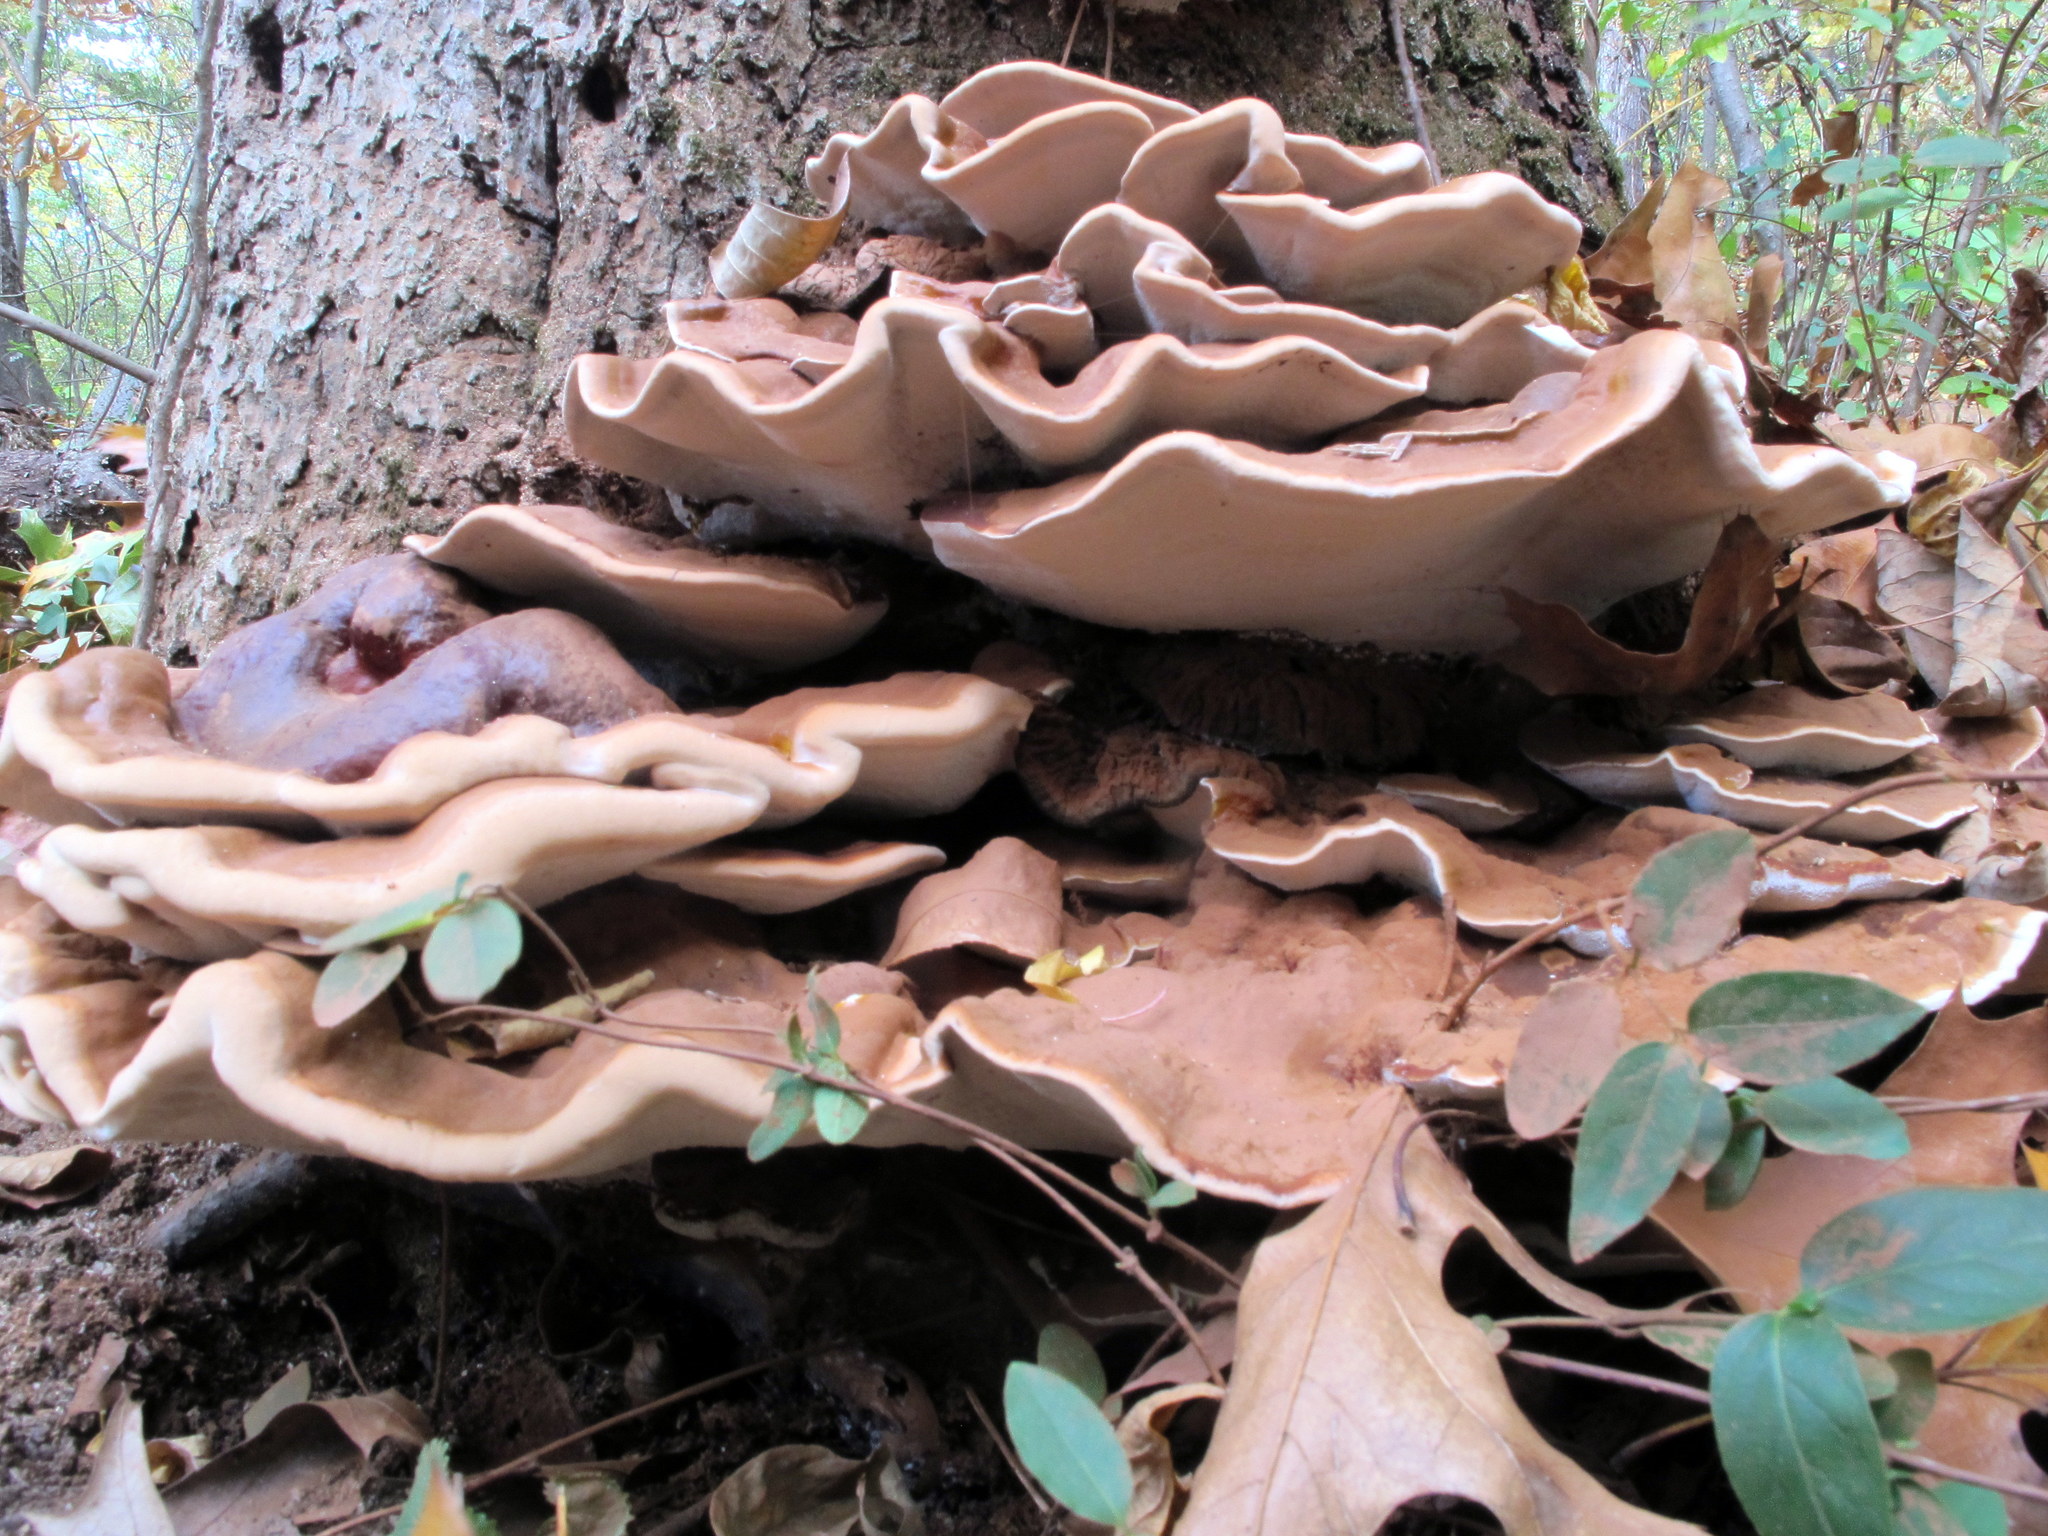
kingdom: Fungi
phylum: Basidiomycota
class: Agaricomycetes
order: Polyporales
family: Polyporaceae
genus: Ganoderma
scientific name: Ganoderma resinaceum
